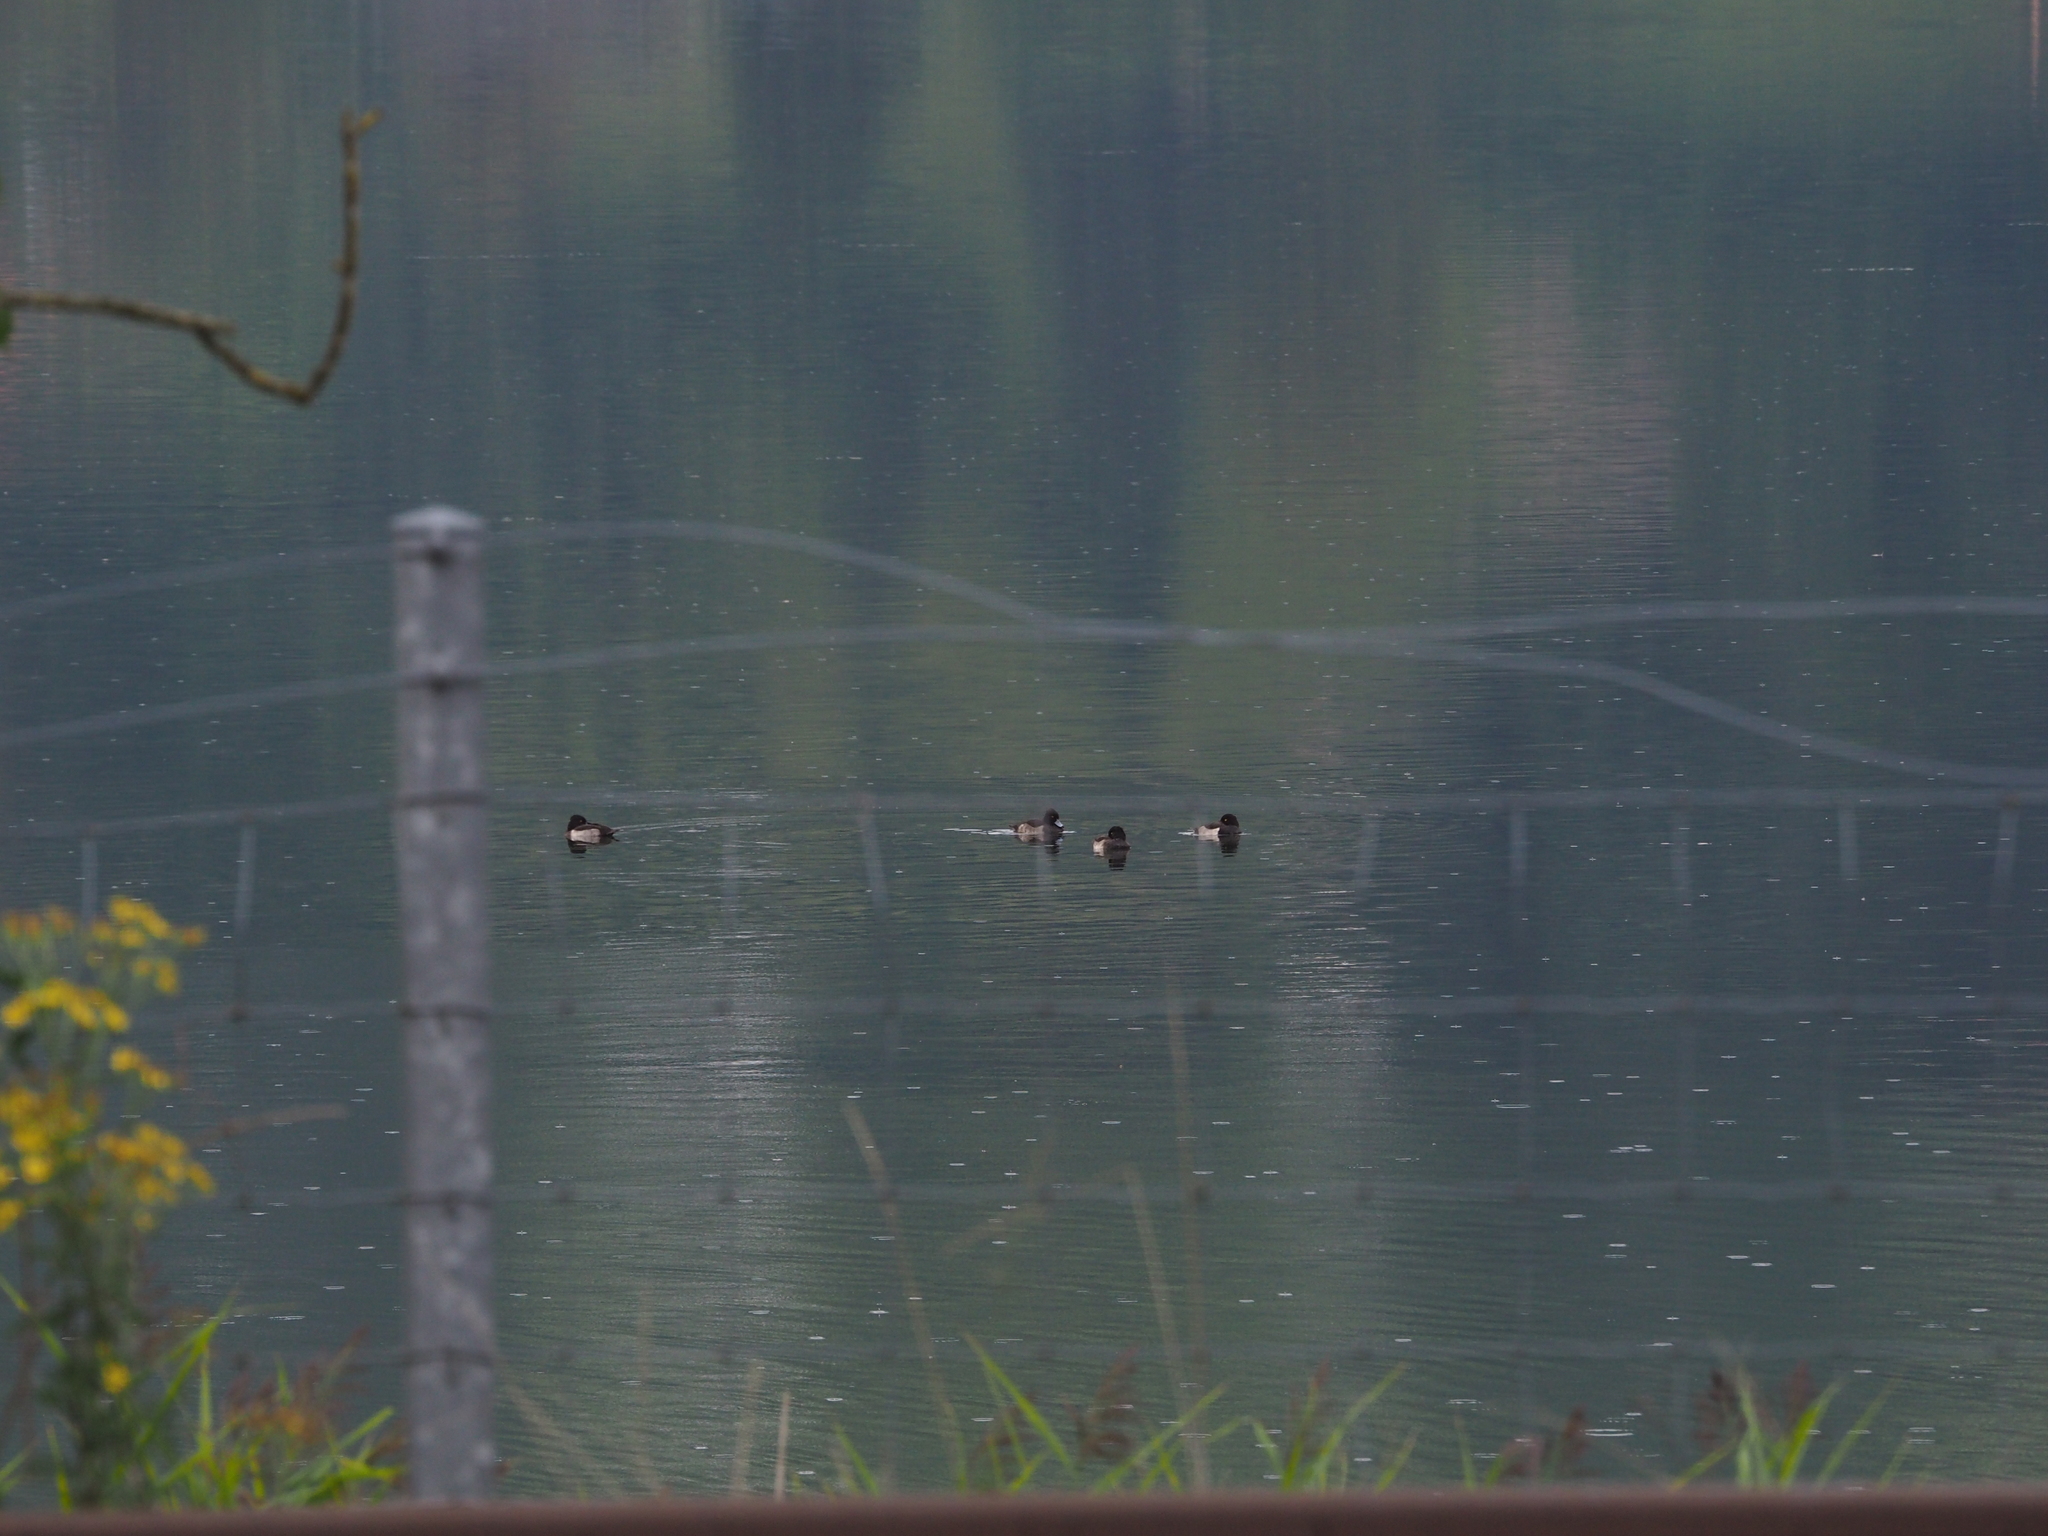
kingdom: Animalia
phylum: Chordata
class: Aves
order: Anseriformes
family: Anatidae
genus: Aythya
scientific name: Aythya fuligula
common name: Tufted duck
